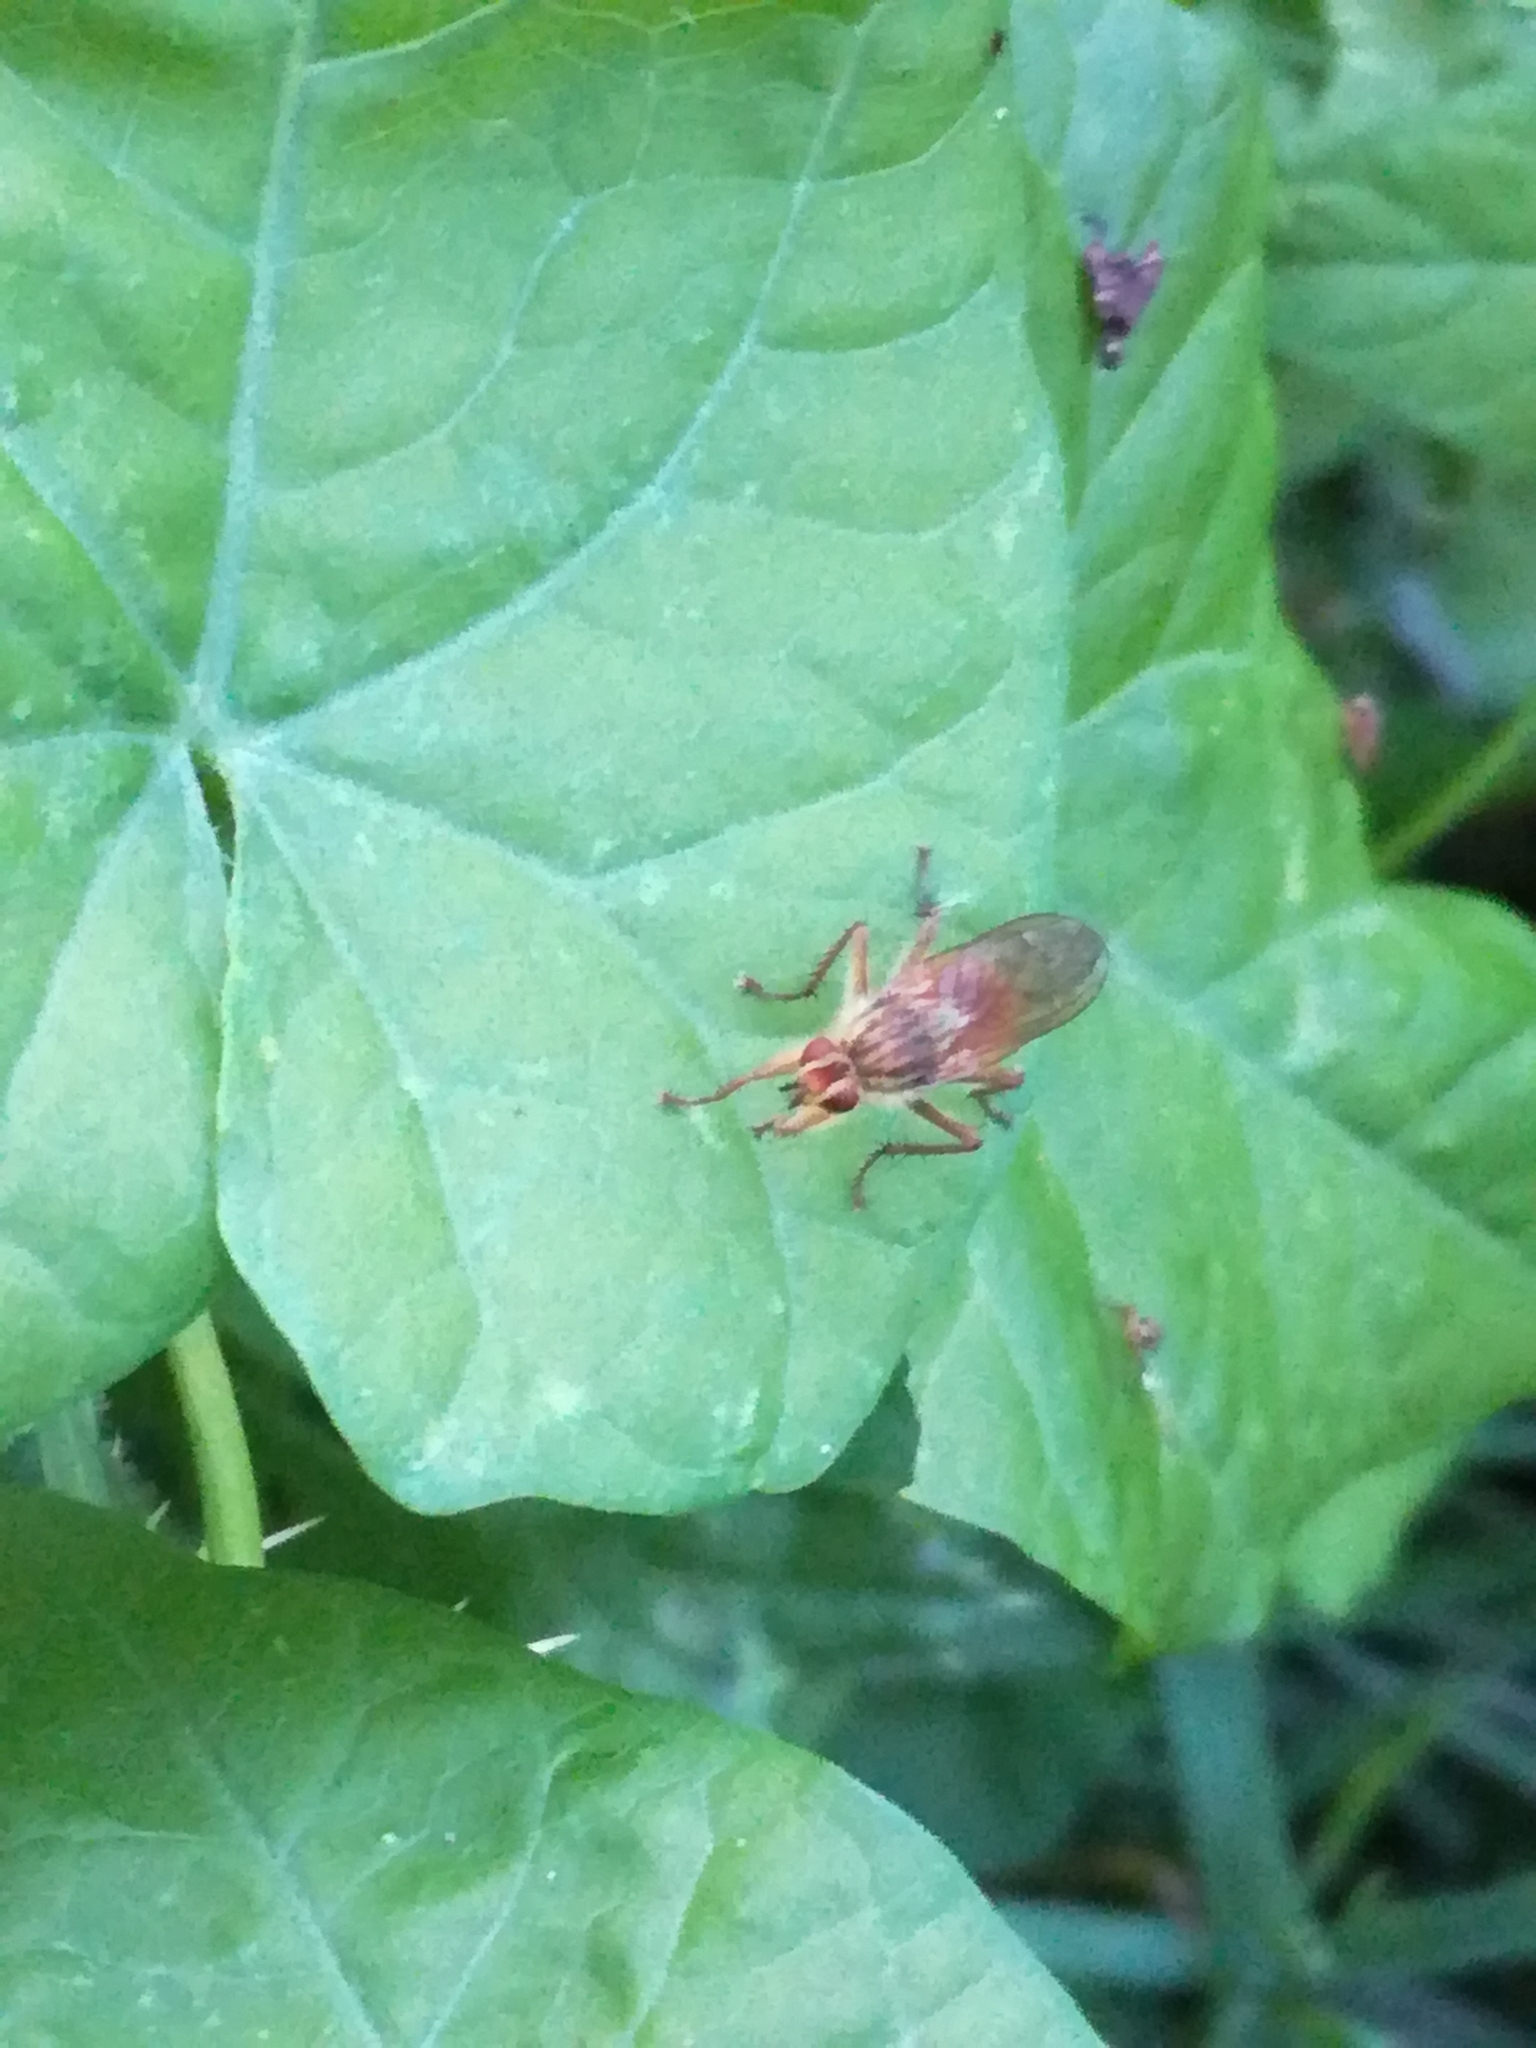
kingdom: Animalia
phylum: Arthropoda
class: Insecta
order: Diptera
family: Scathophagidae
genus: Scathophaga
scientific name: Scathophaga stercoraria
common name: Yellow dung fly
